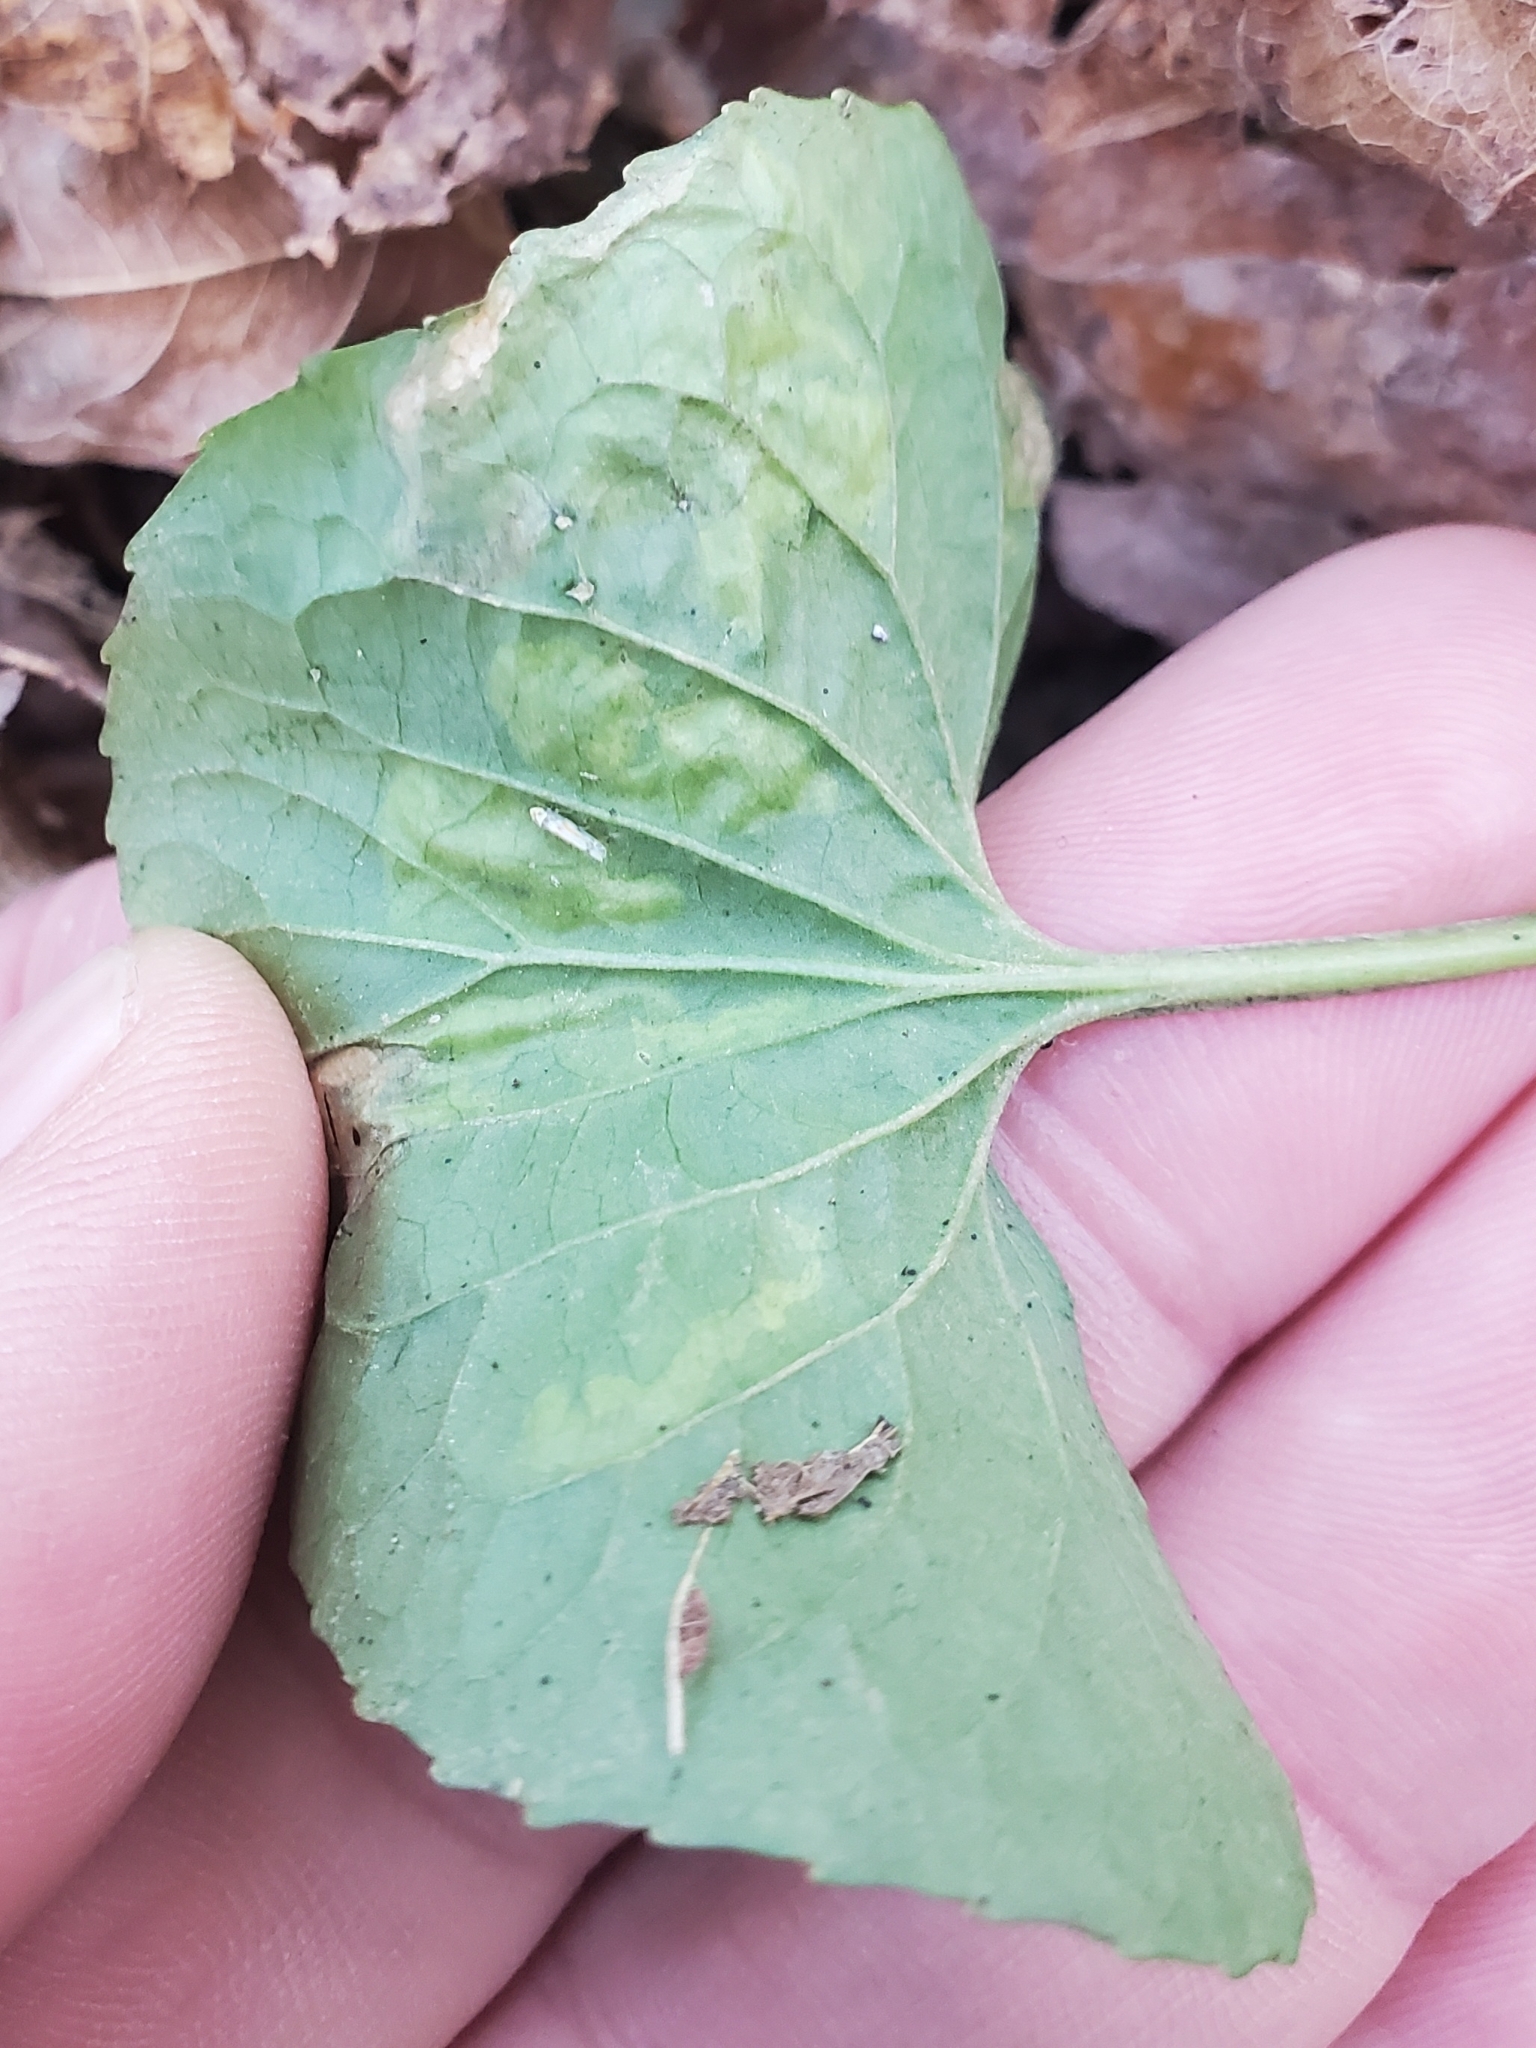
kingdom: Animalia
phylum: Arthropoda
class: Insecta
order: Diptera
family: Agromyzidae
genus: Liriomyza
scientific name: Liriomyza violivora
